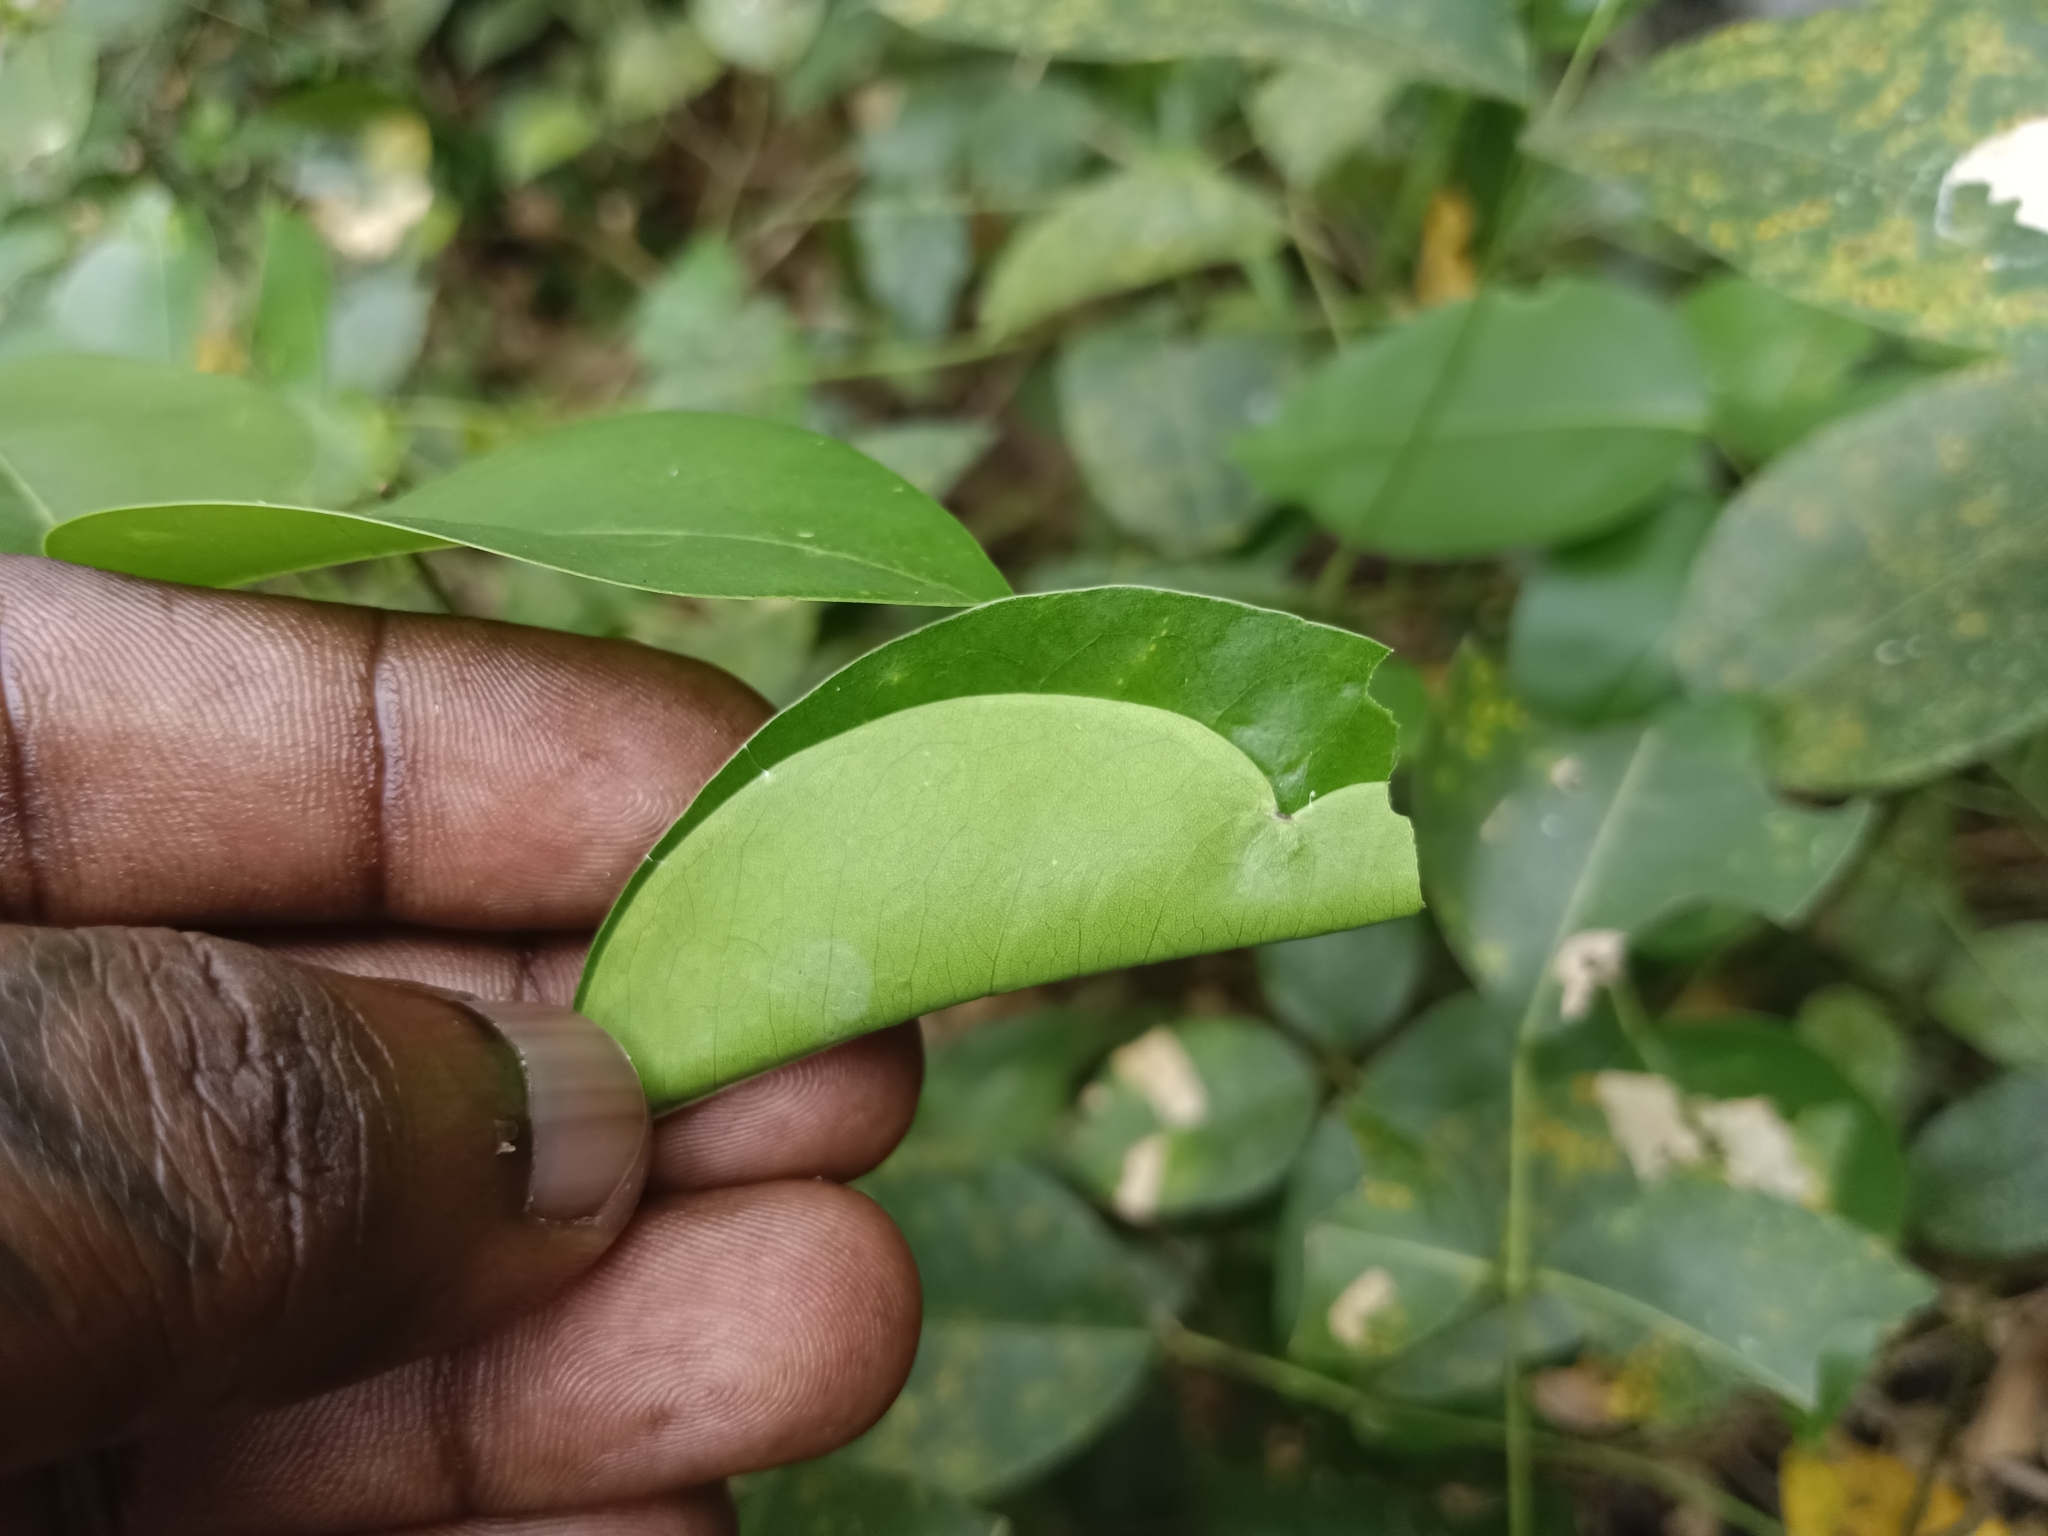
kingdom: Animalia
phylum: Arthropoda
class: Insecta
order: Lepidoptera
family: Hesperiidae
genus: Hasora
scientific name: Hasora badra
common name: Common awl
